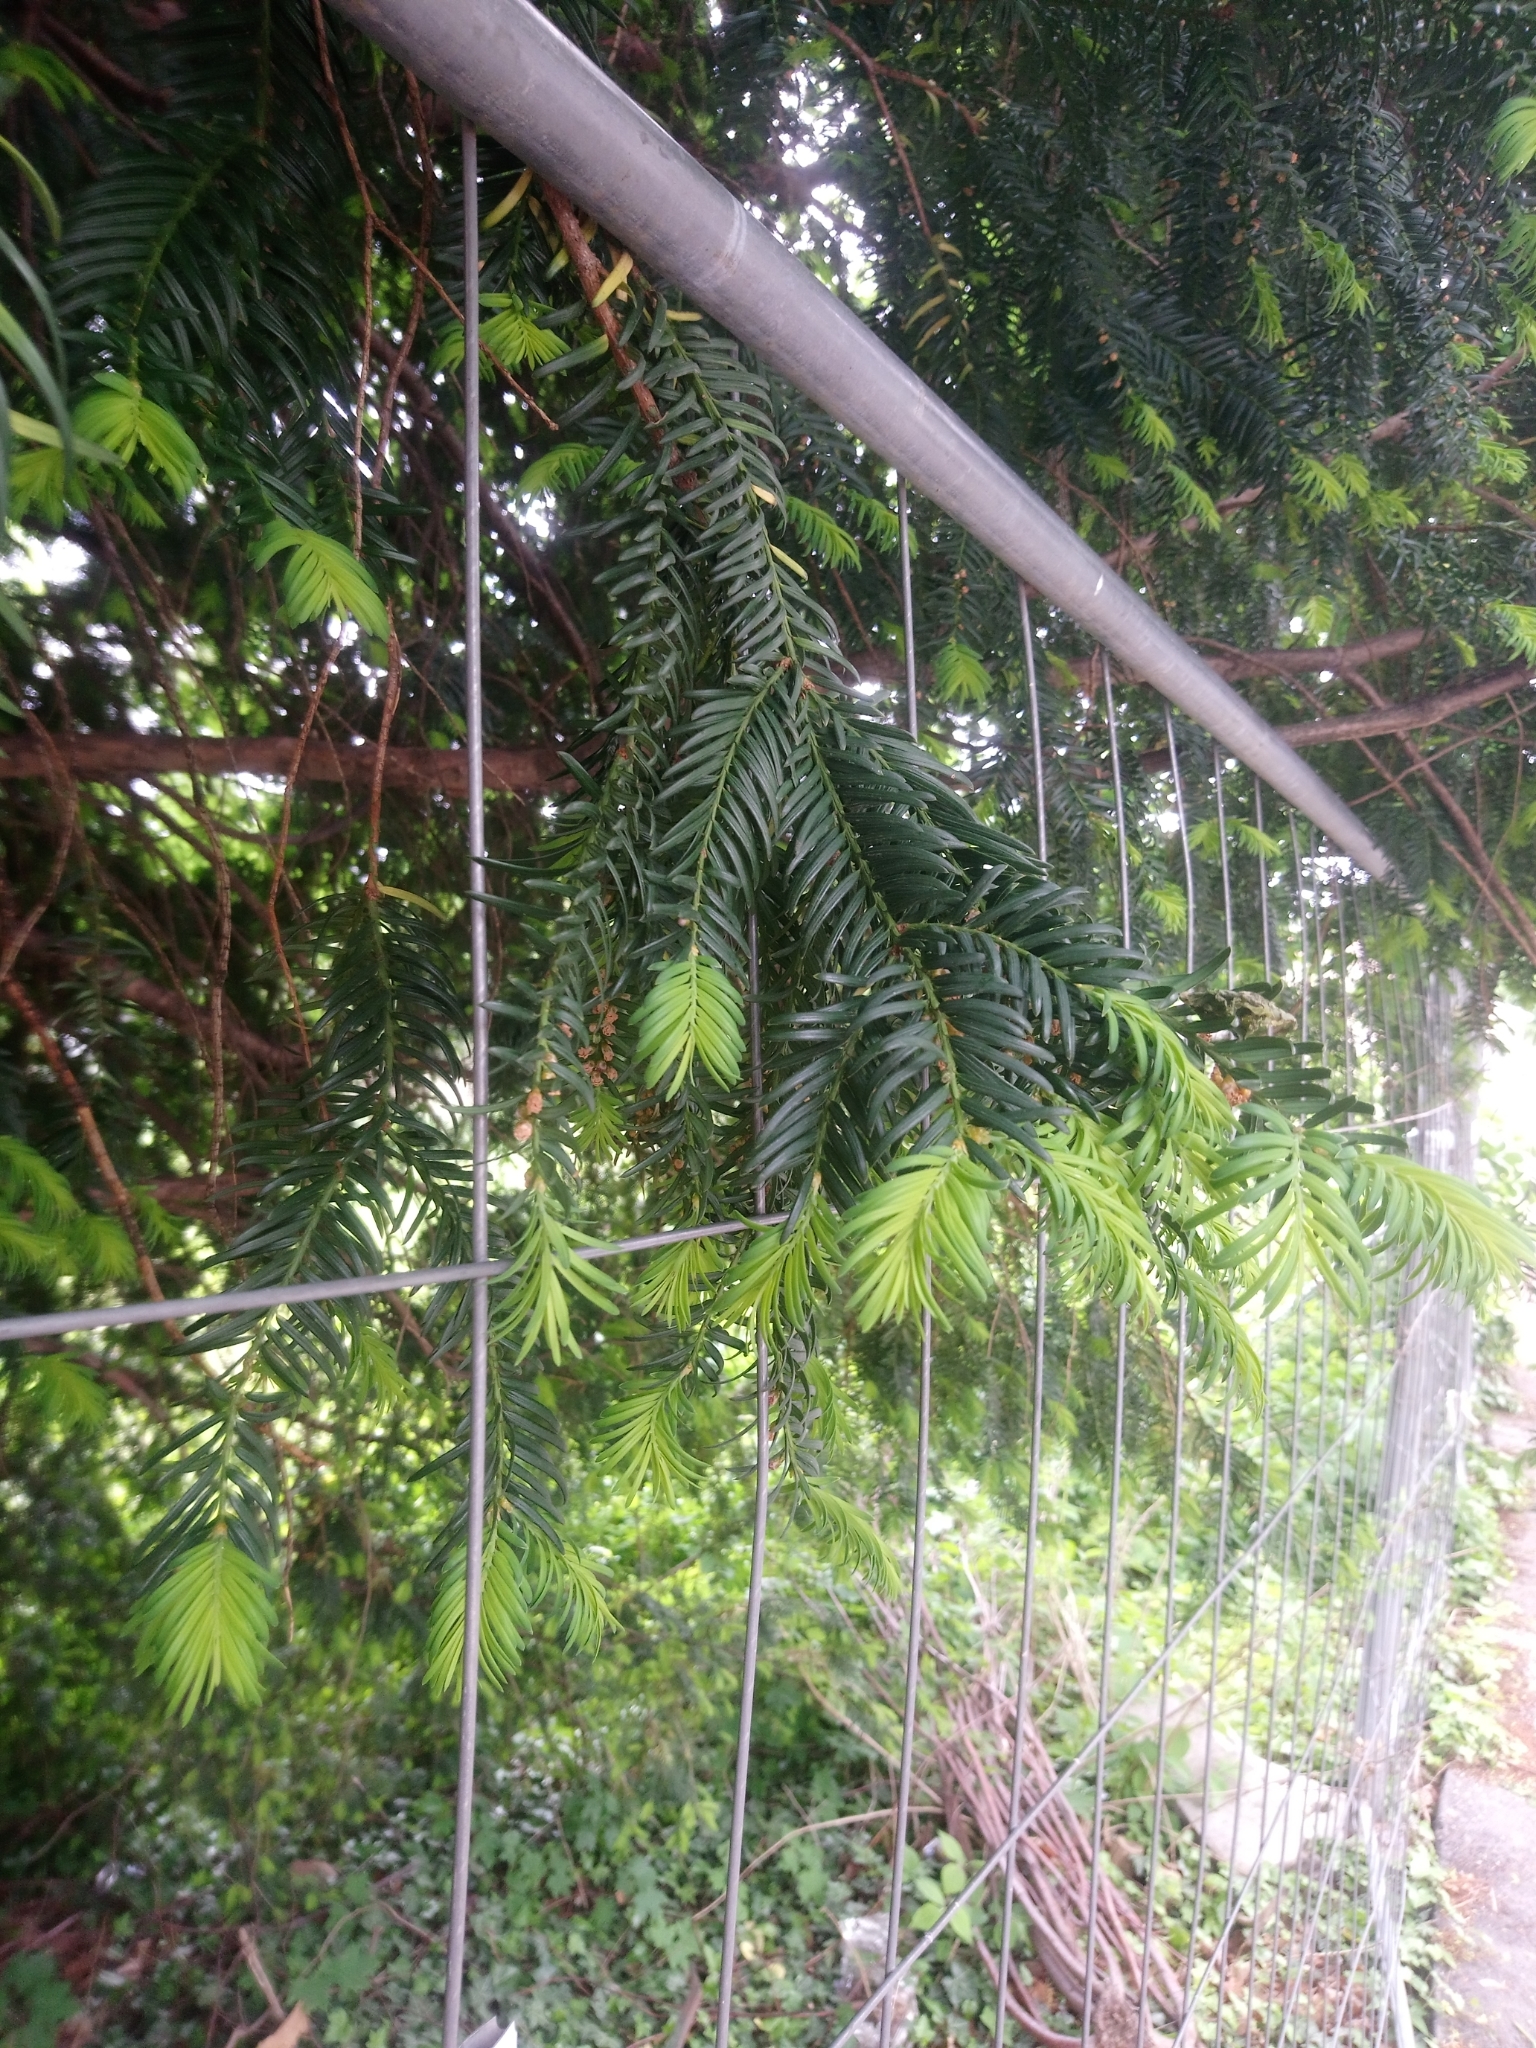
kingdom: Plantae
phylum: Tracheophyta
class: Pinopsida
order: Pinales
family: Taxaceae
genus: Taxus
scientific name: Taxus baccata
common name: Yew
